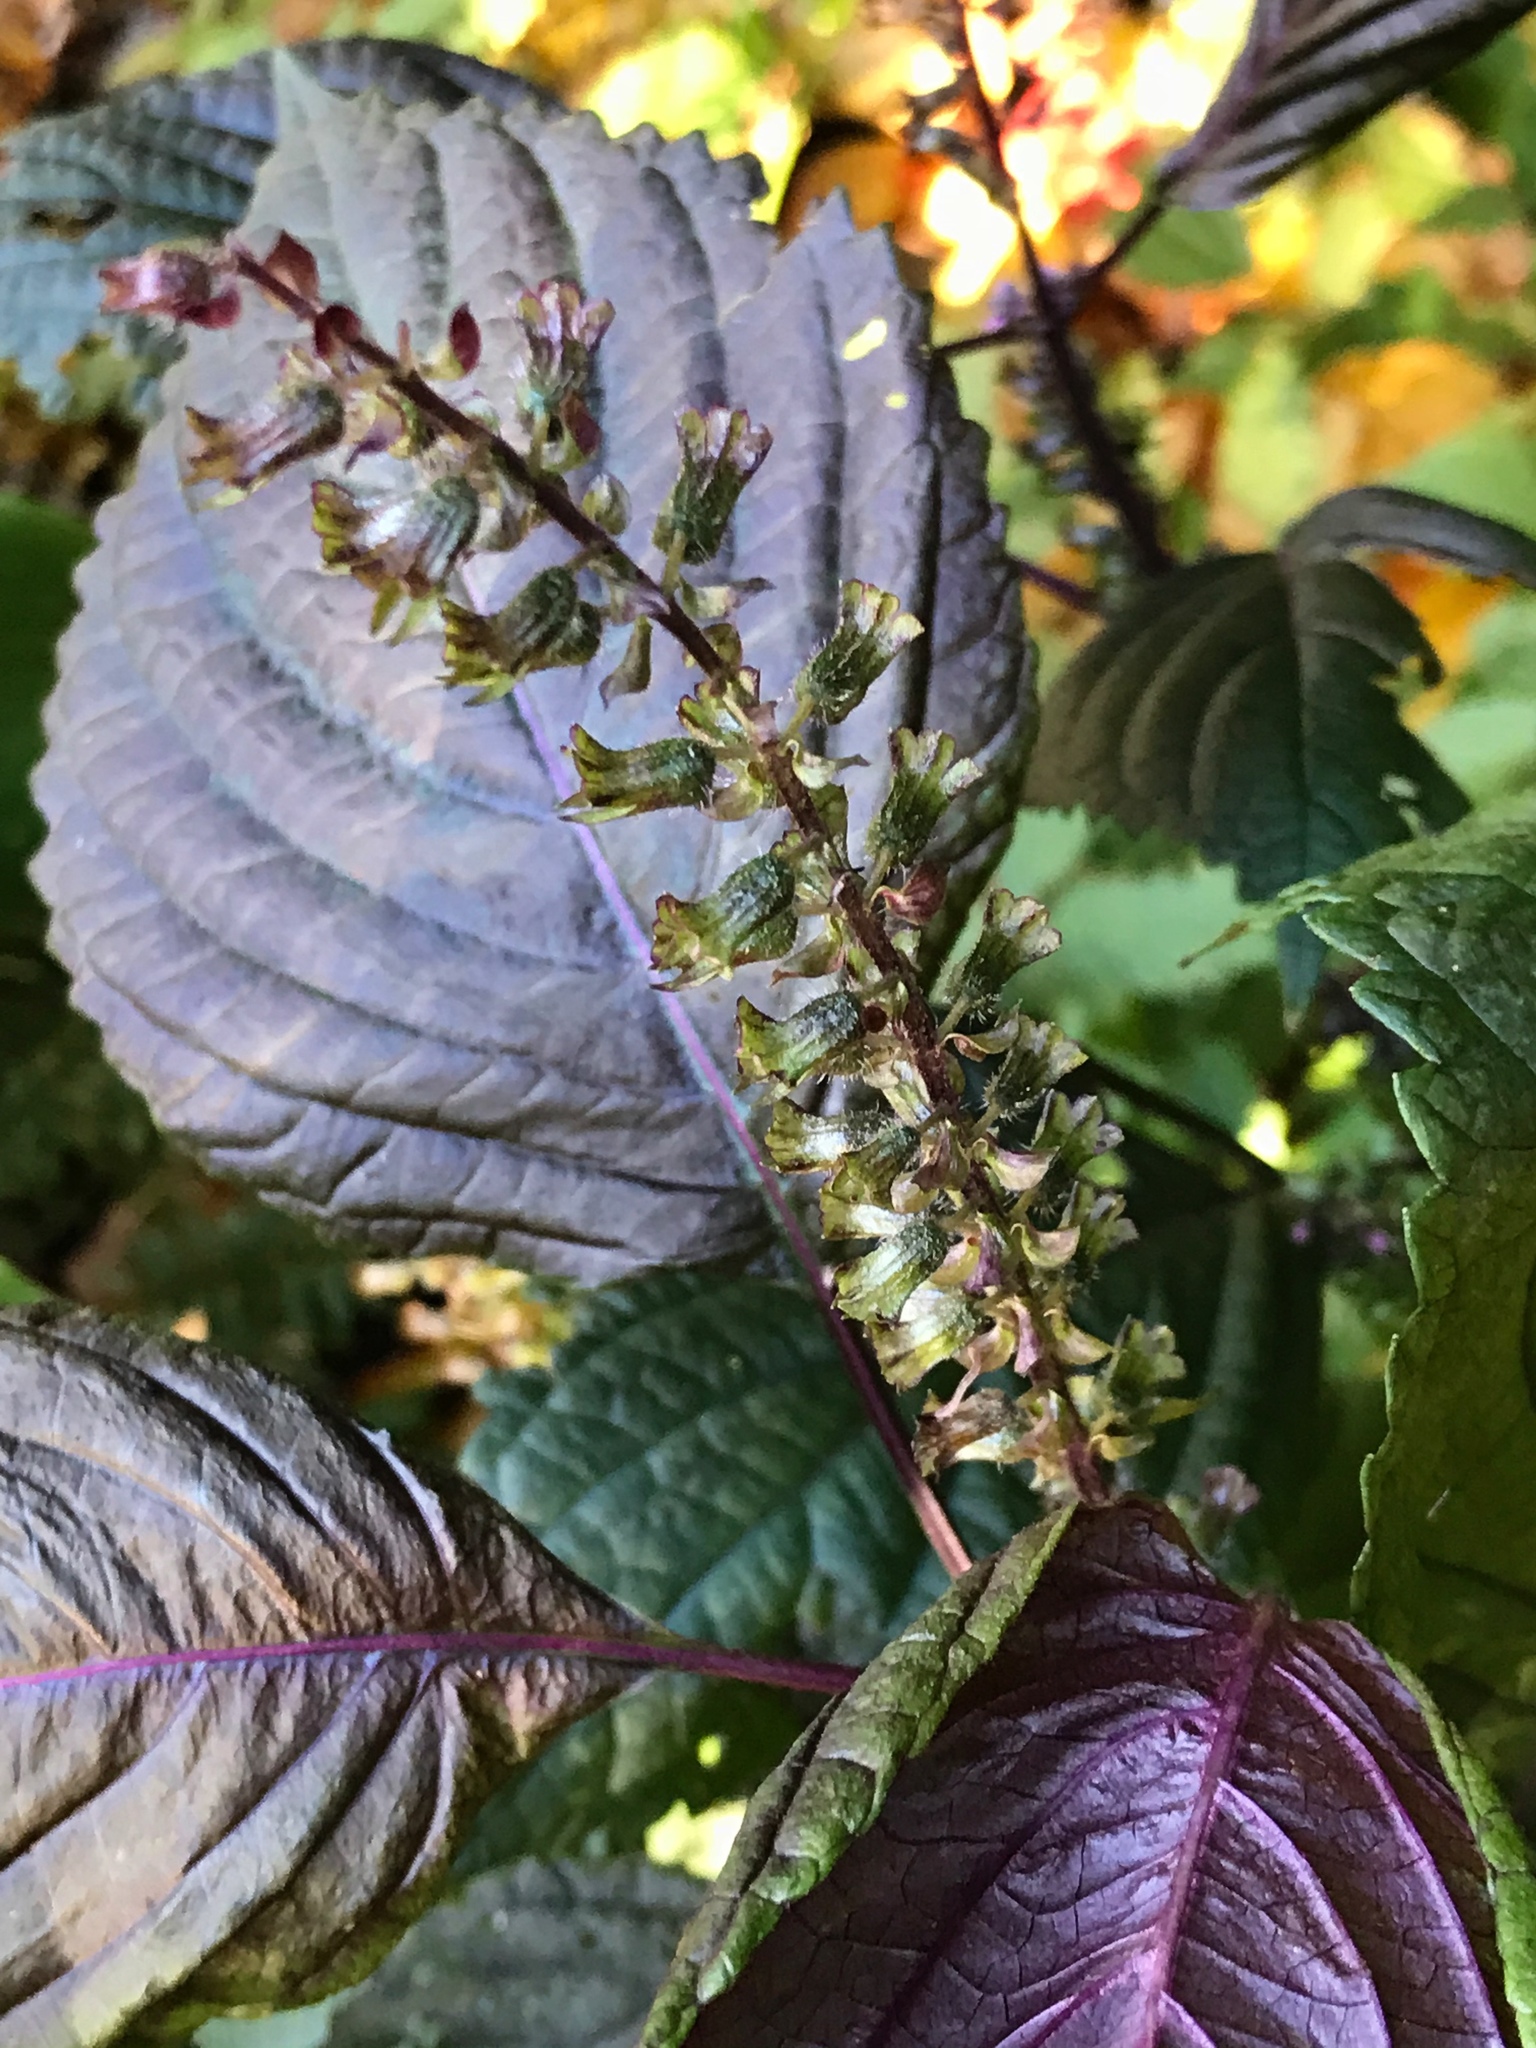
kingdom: Plantae
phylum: Tracheophyta
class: Magnoliopsida
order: Lamiales
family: Lamiaceae
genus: Perilla
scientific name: Perilla frutescens
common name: Perilla
